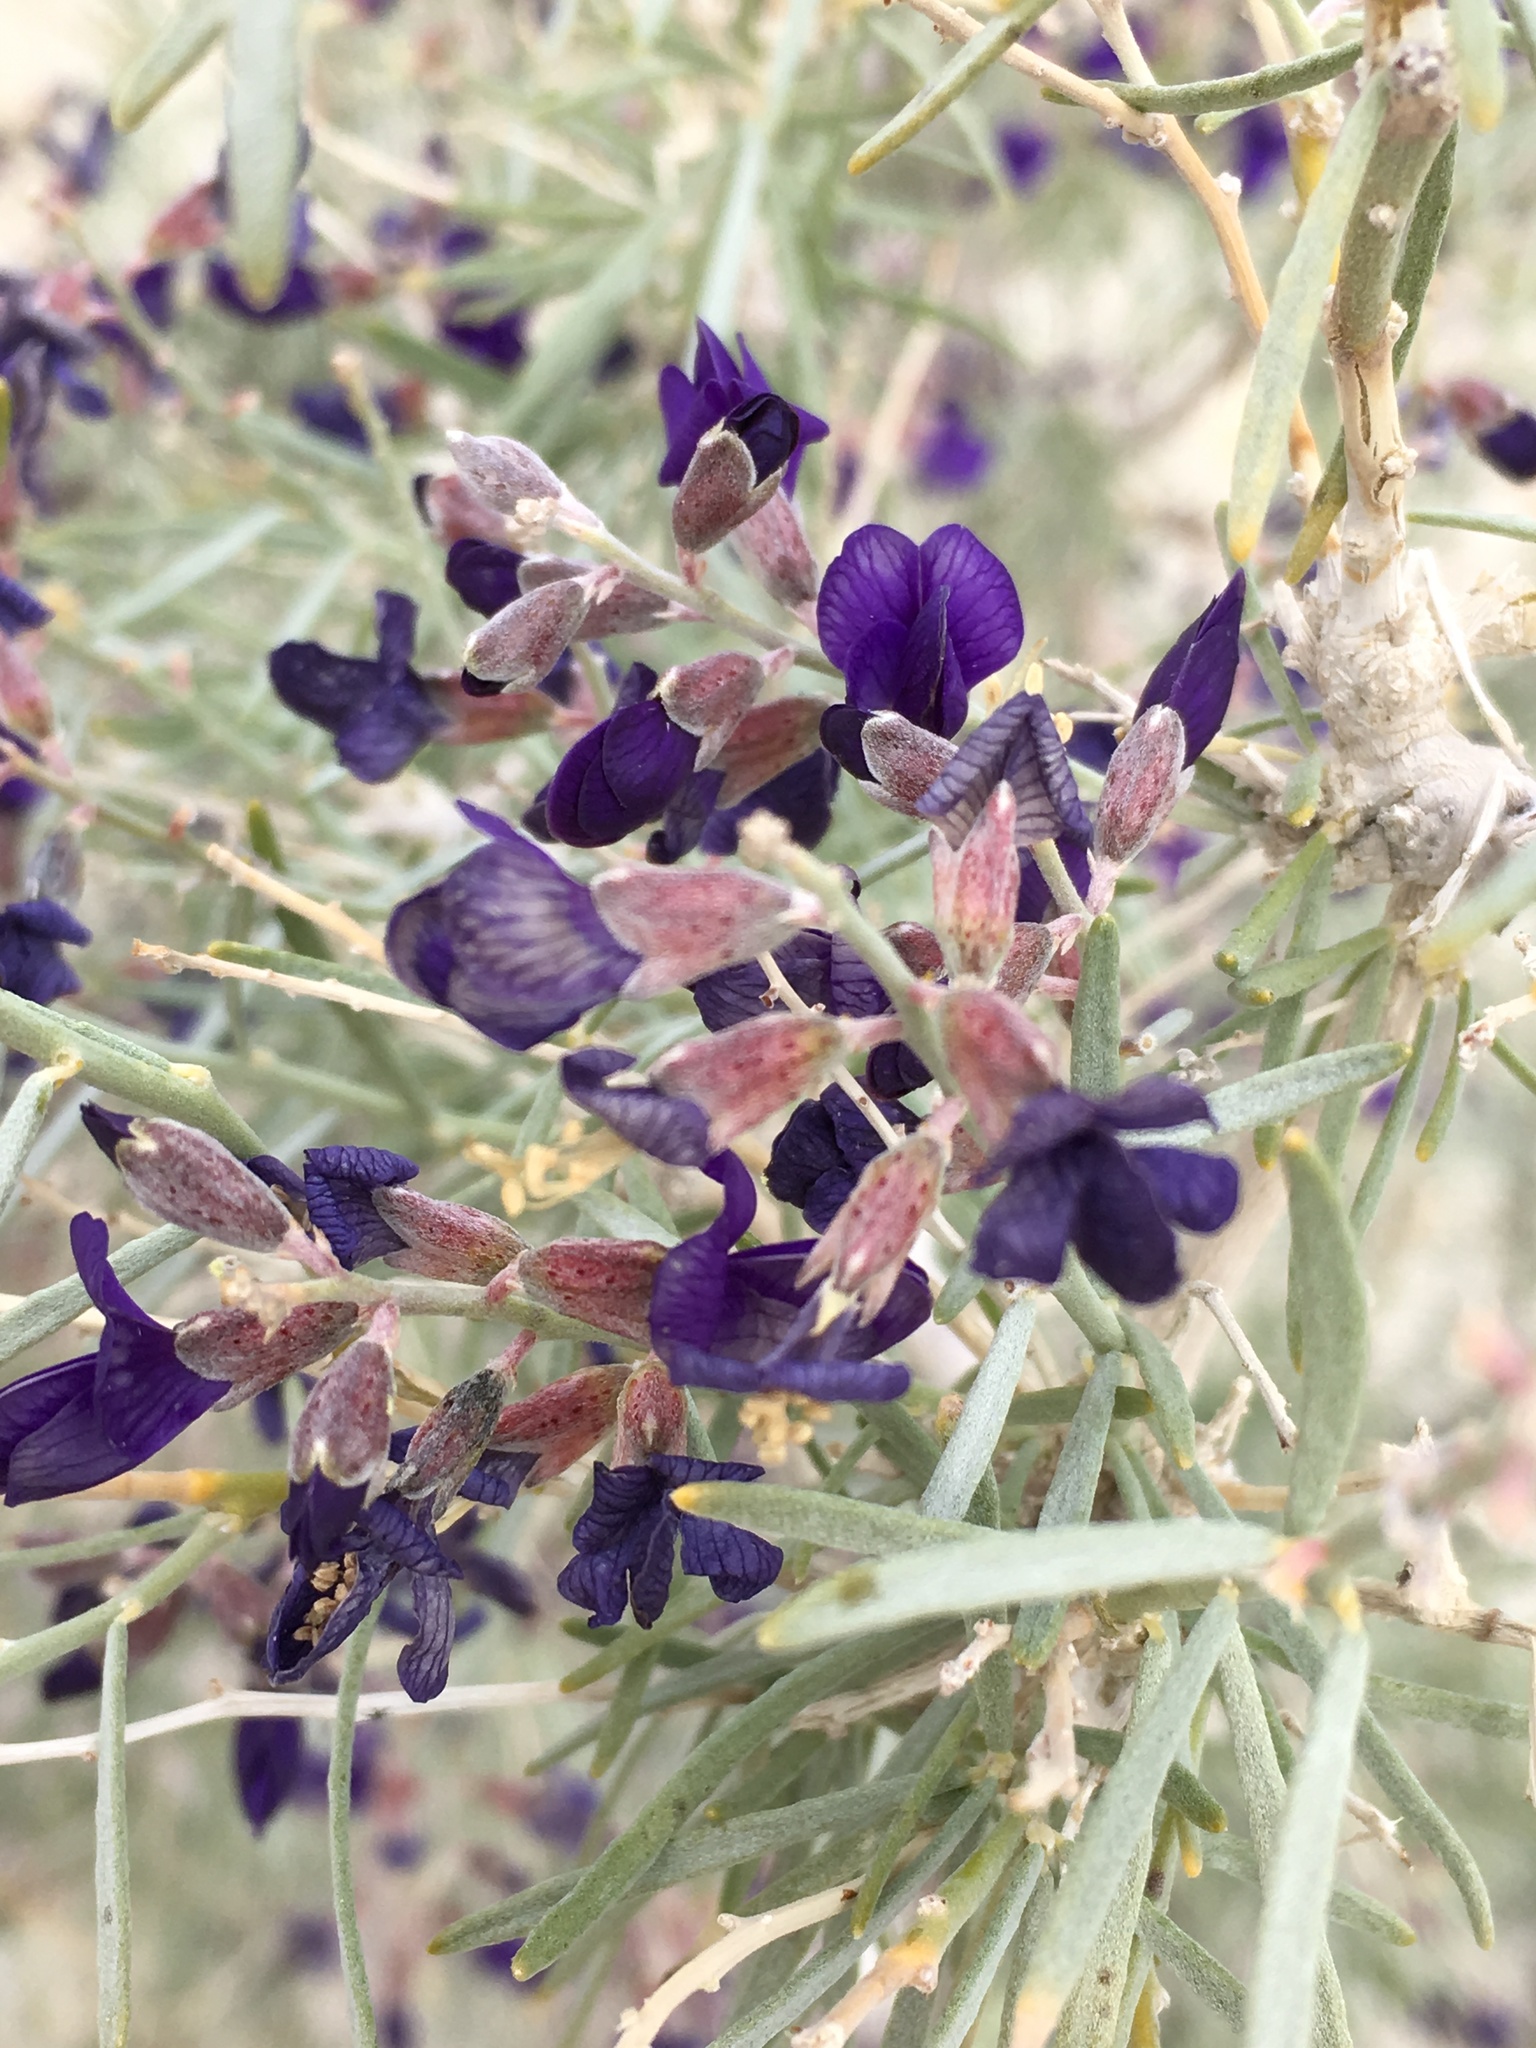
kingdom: Plantae
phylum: Tracheophyta
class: Magnoliopsida
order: Fabales
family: Fabaceae
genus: Psorothamnus
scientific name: Psorothamnus schottii
